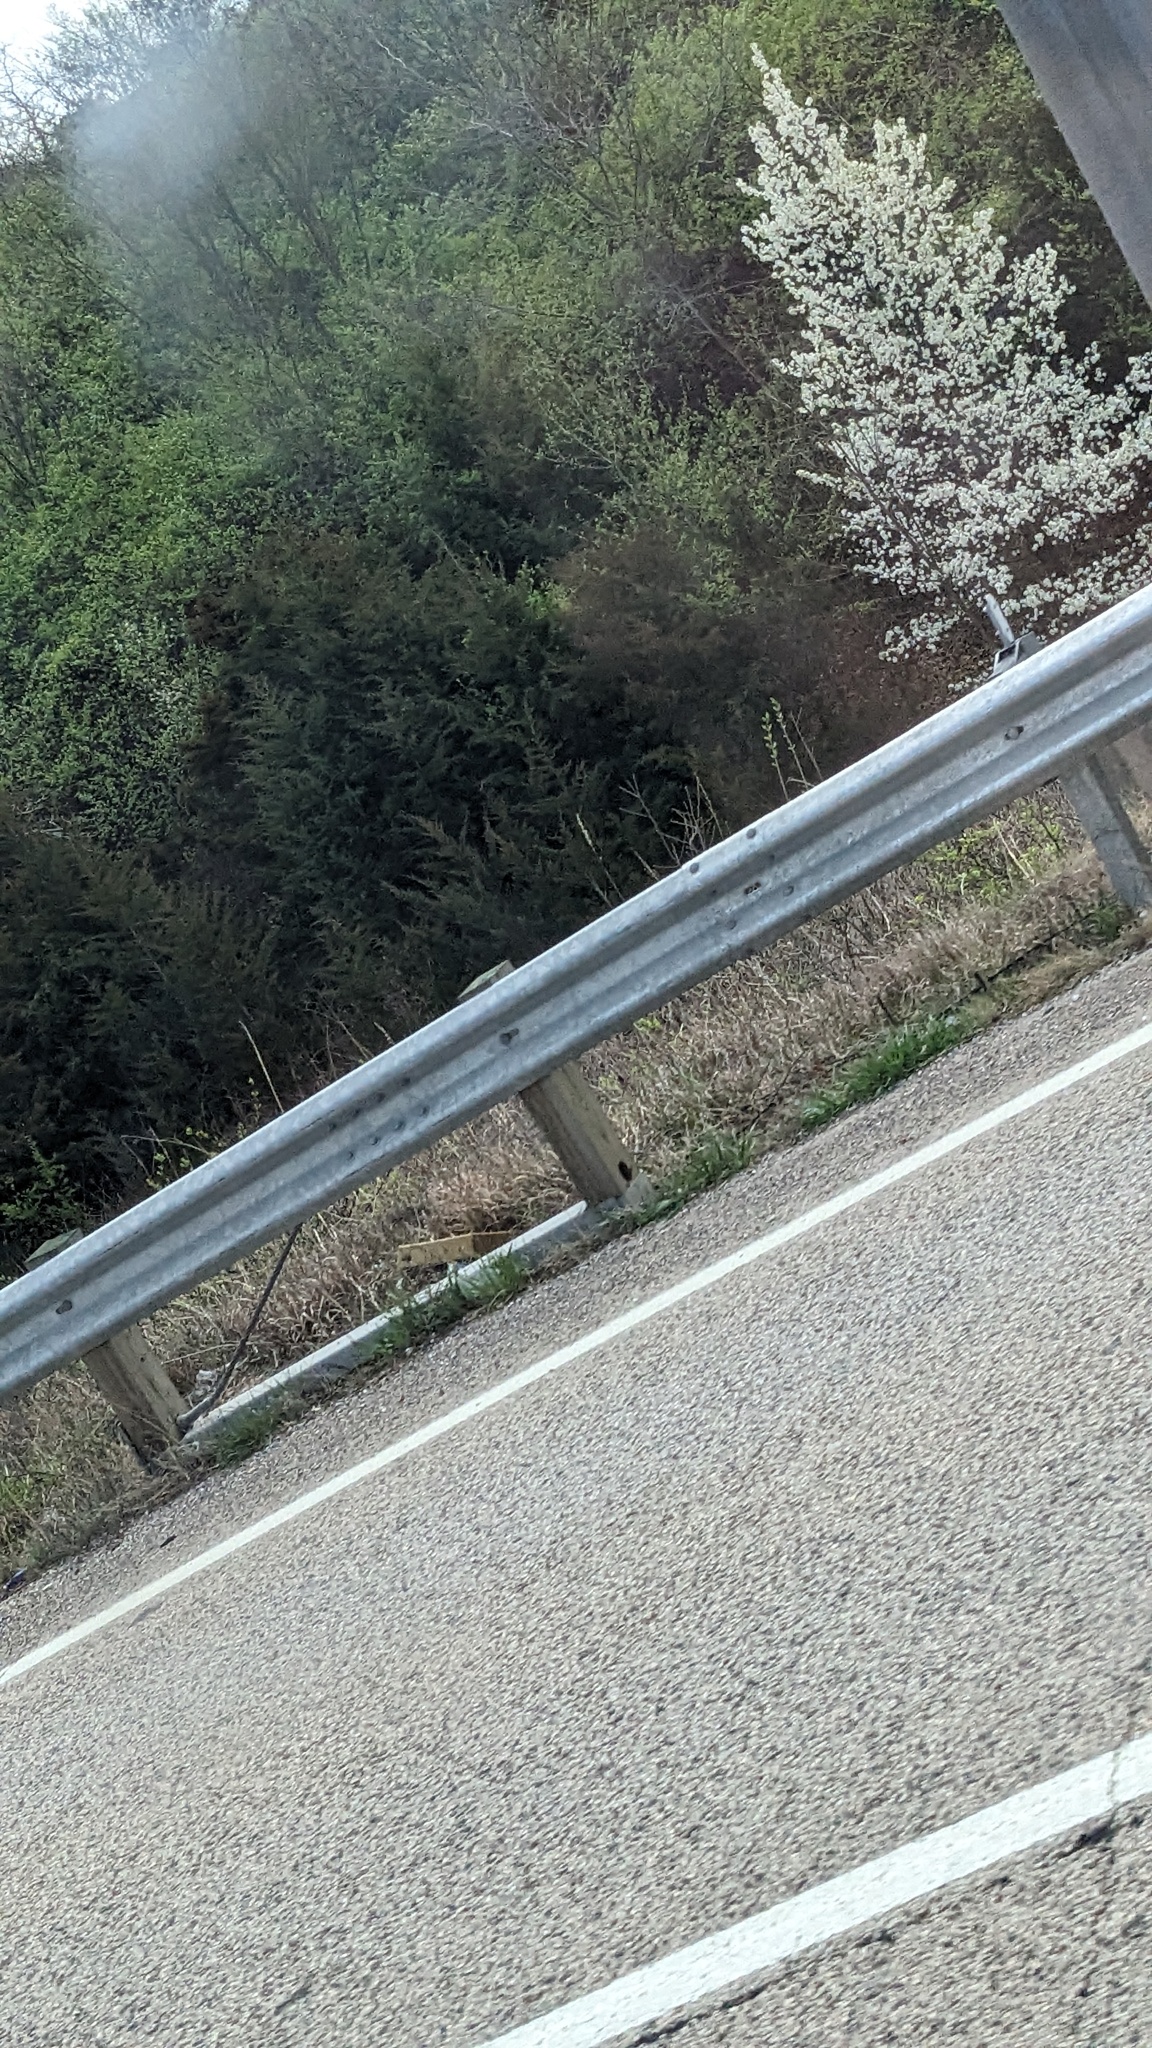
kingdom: Plantae
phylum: Tracheophyta
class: Magnoliopsida
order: Rosales
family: Rosaceae
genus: Pyrus
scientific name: Pyrus calleryana
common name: Callery pear
